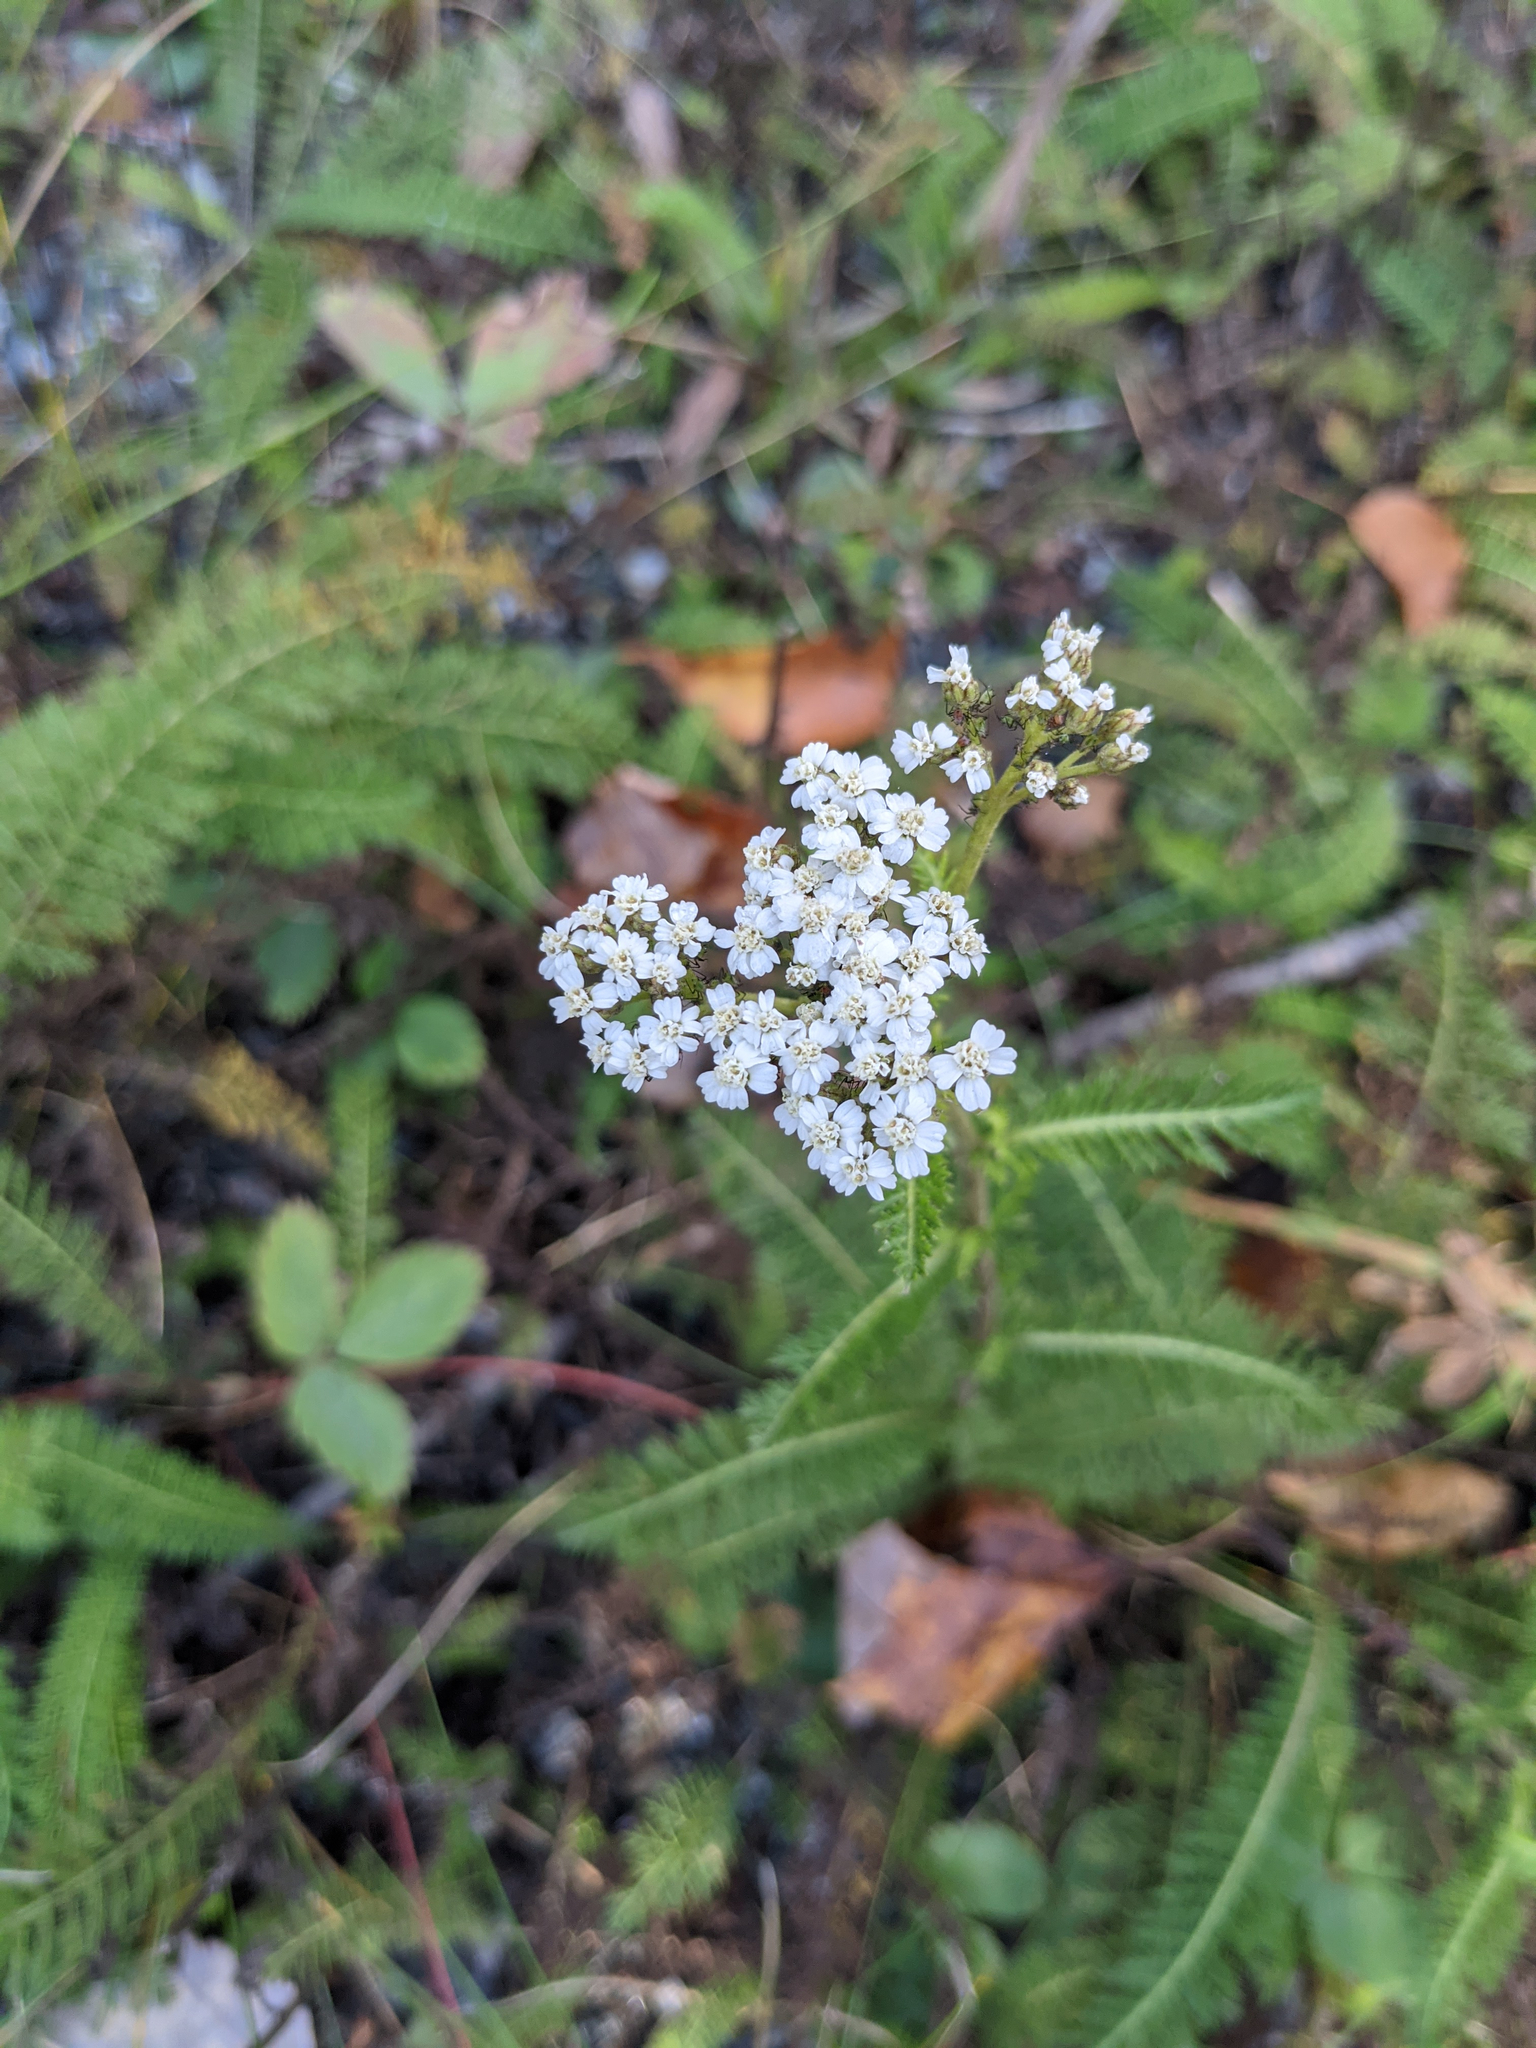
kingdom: Plantae
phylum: Tracheophyta
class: Magnoliopsida
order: Asterales
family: Asteraceae
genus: Achillea
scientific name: Achillea millefolium
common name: Yarrow
